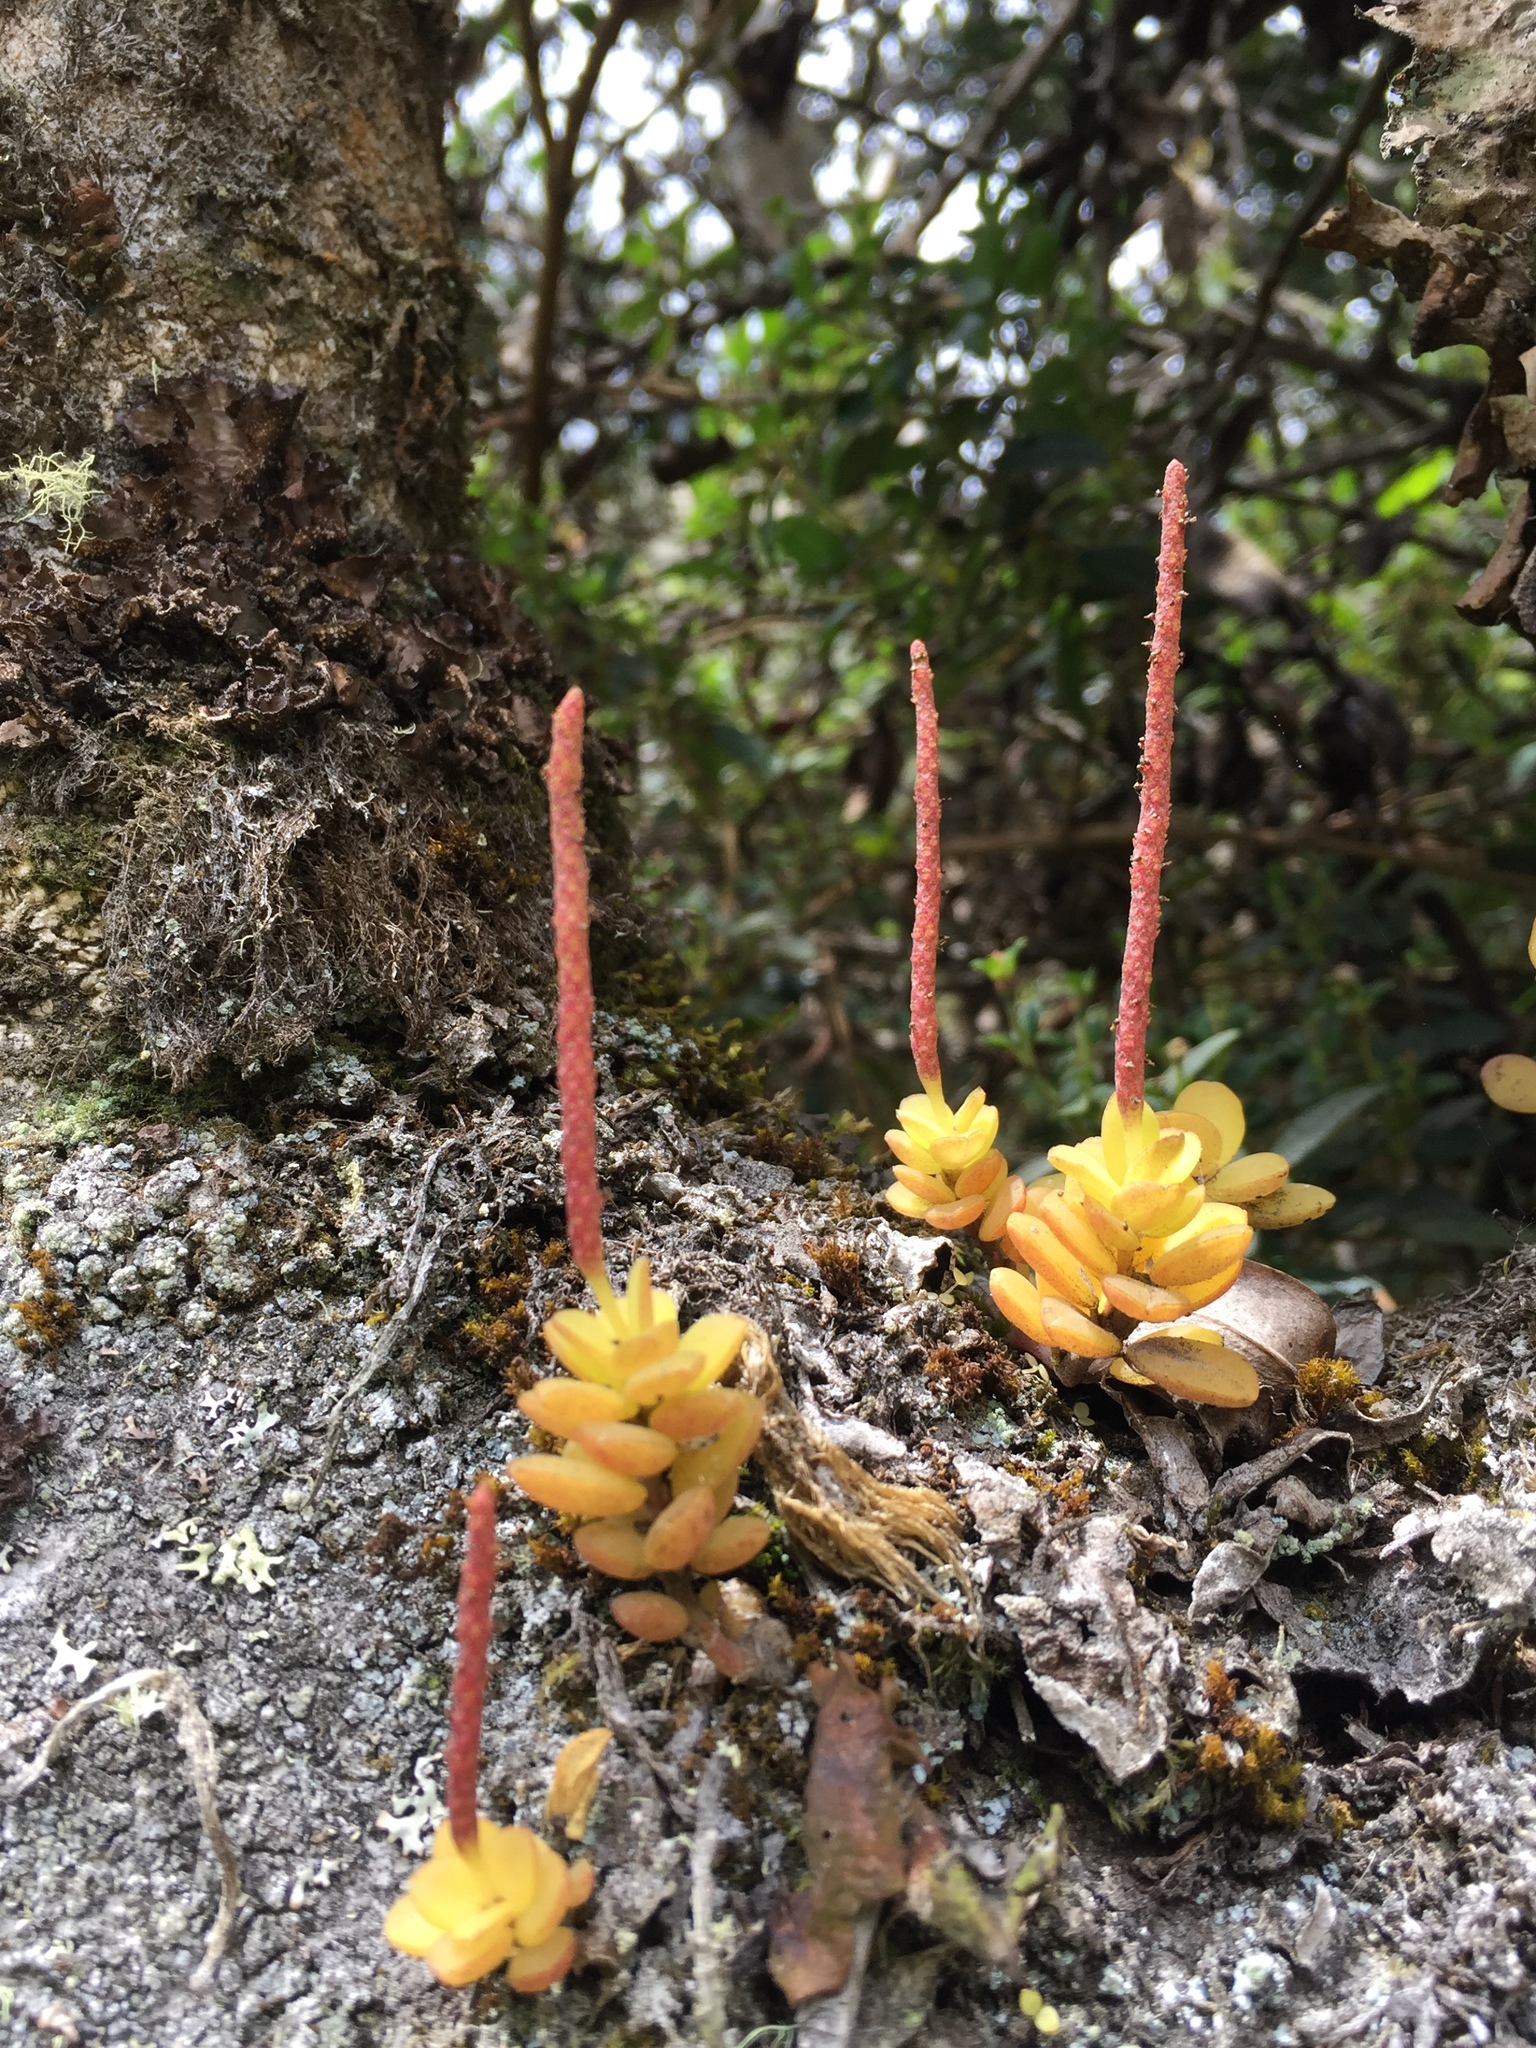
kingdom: Plantae
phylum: Tracheophyta
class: Magnoliopsida
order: Piperales
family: Piperaceae
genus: Peperomia
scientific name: Peperomia hartwegiana
